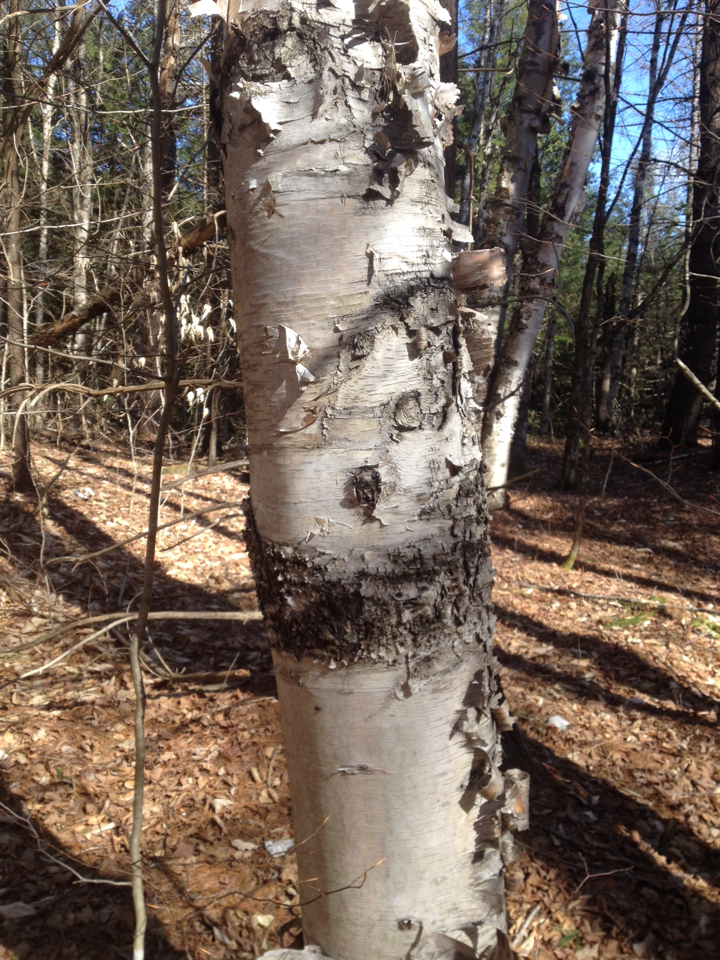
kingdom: Plantae
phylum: Tracheophyta
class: Magnoliopsida
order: Fagales
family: Betulaceae
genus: Betula
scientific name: Betula papyrifera
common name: Paper birch
